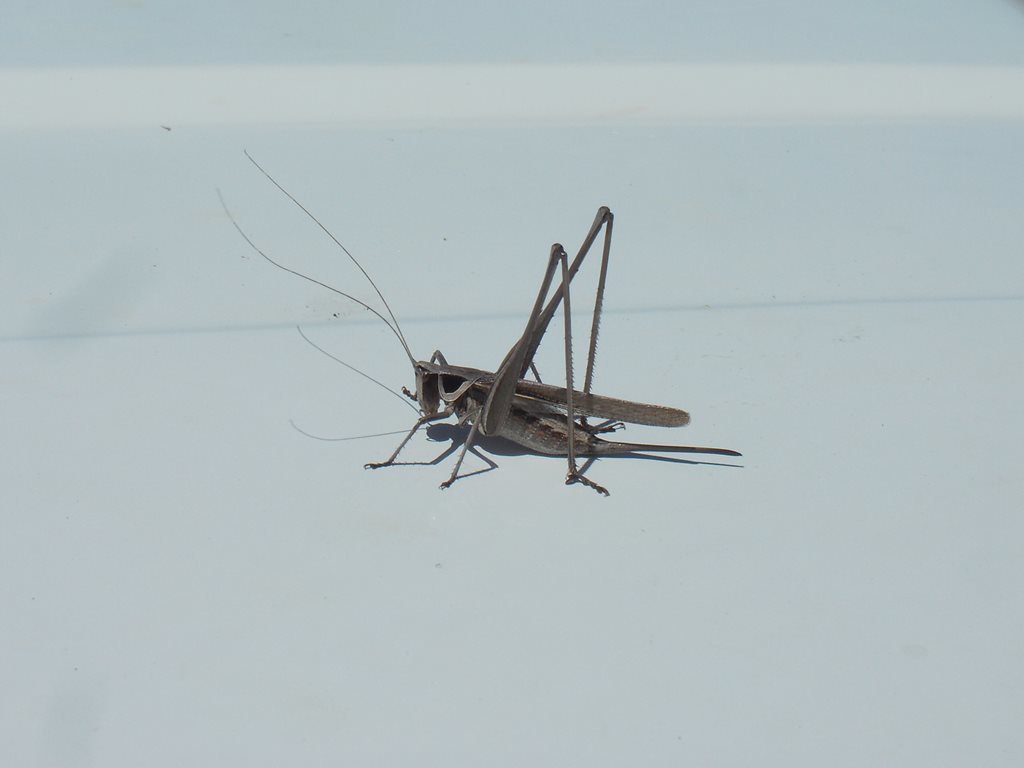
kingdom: Animalia
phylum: Arthropoda
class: Insecta
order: Orthoptera
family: Tettigoniidae
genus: Rhachidorus
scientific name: Rhachidorus blackdownensis
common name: Blackdown grass shield-back
